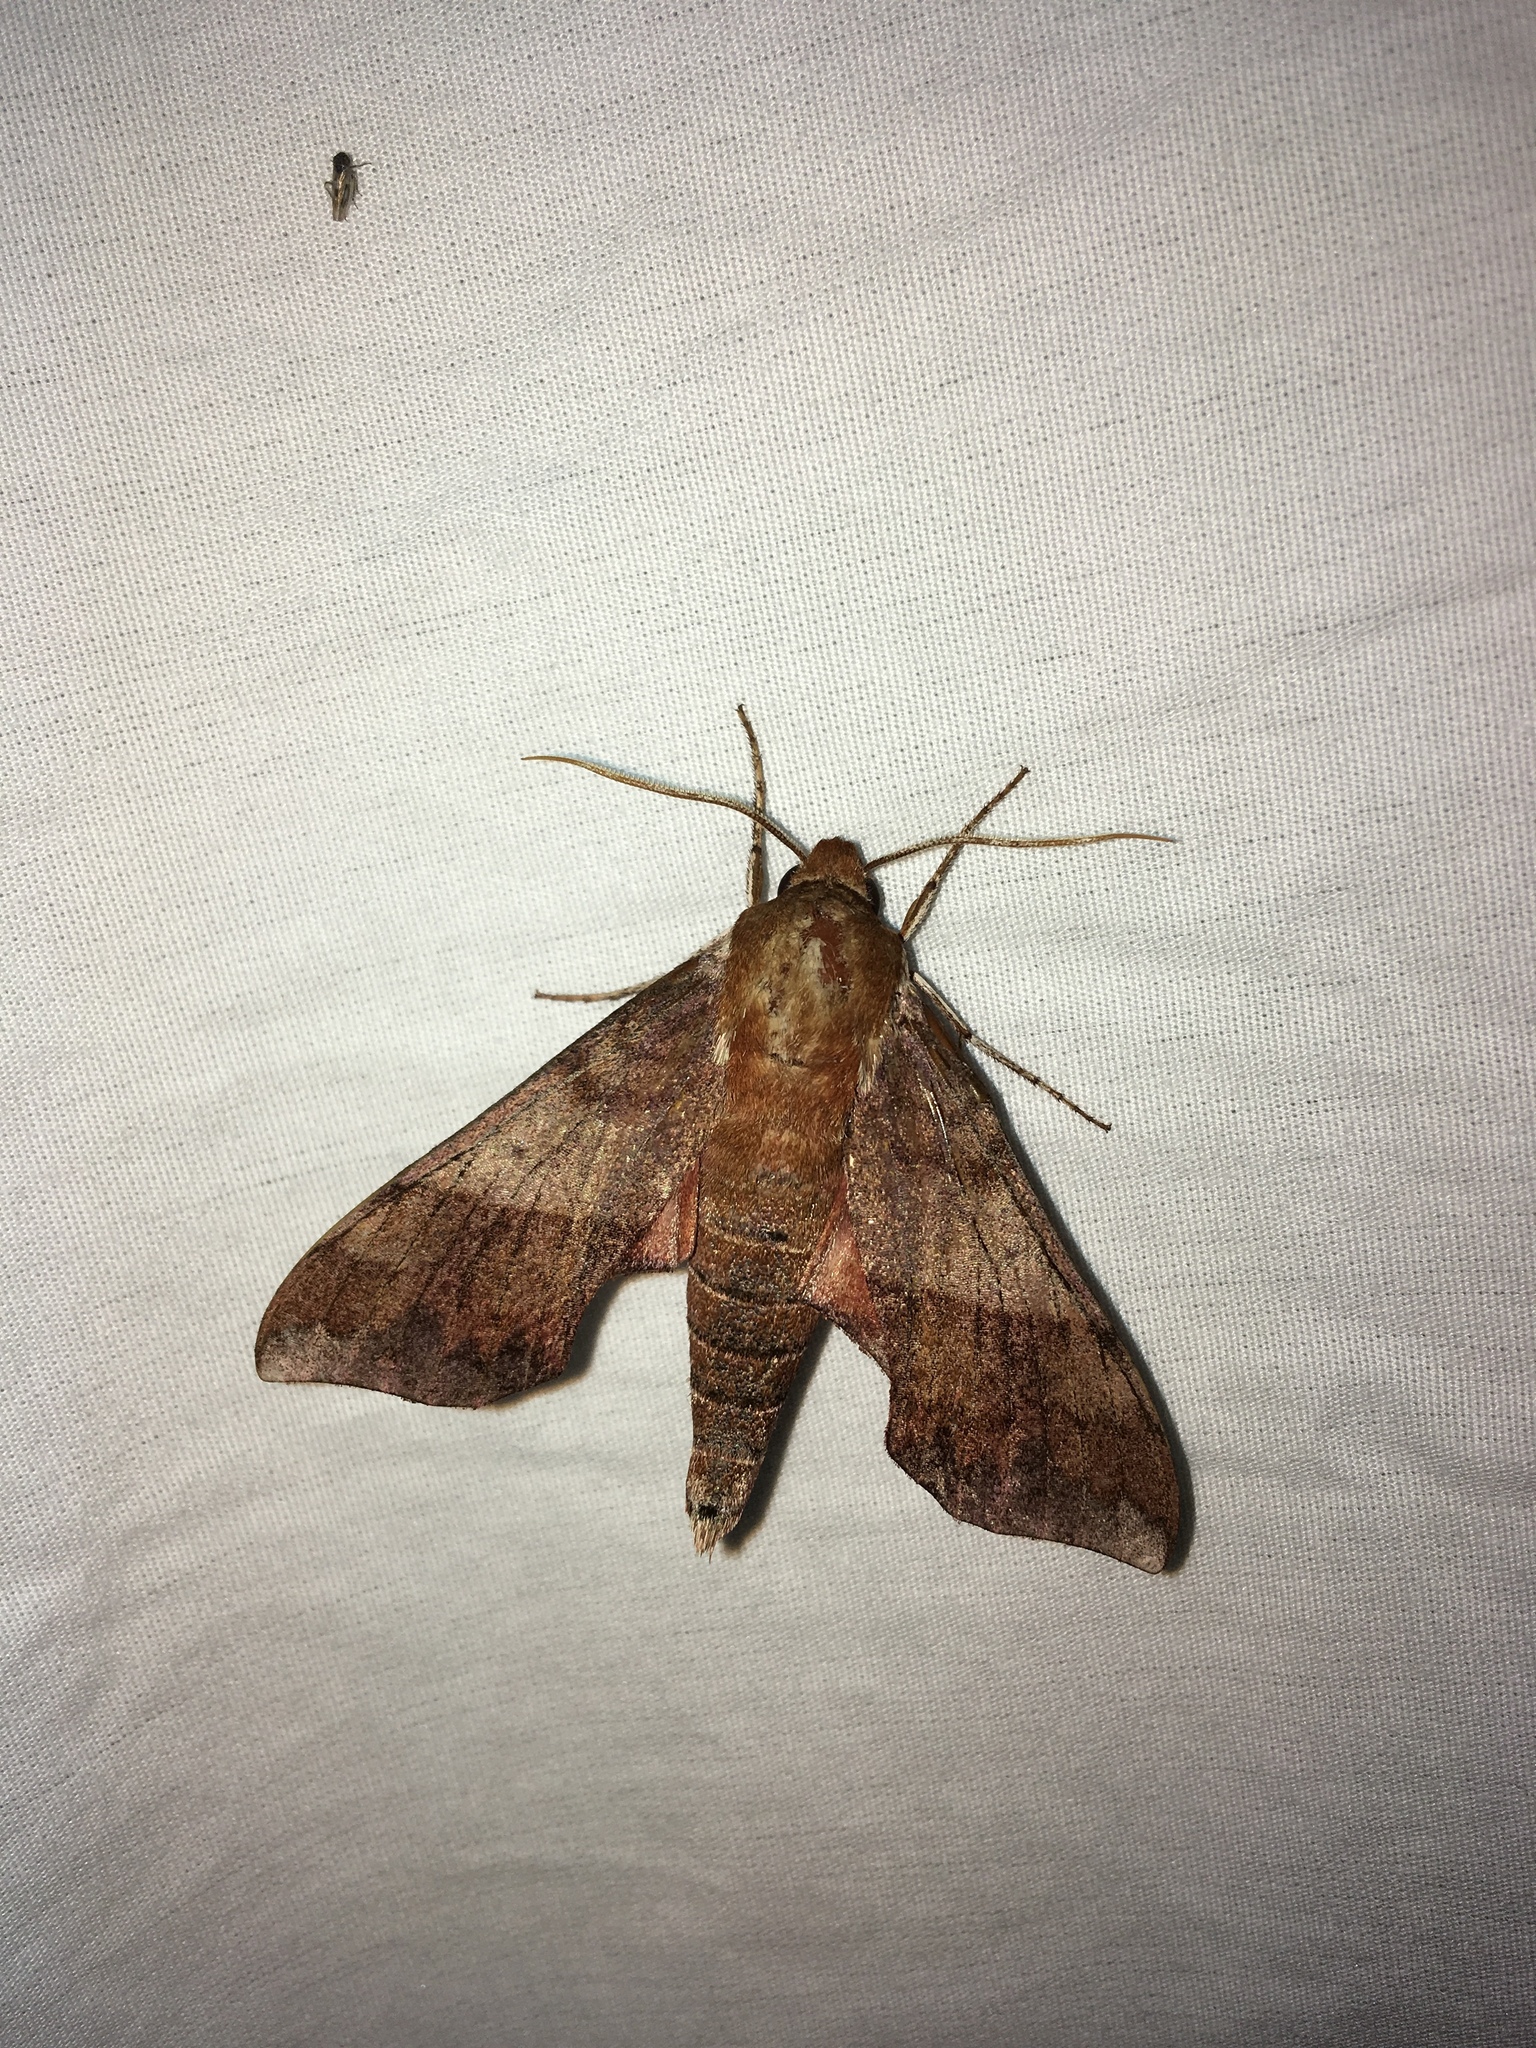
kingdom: Animalia
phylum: Arthropoda
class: Insecta
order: Lepidoptera
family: Sphingidae
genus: Darapsa
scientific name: Darapsa choerilus
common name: Azalea sphinx
